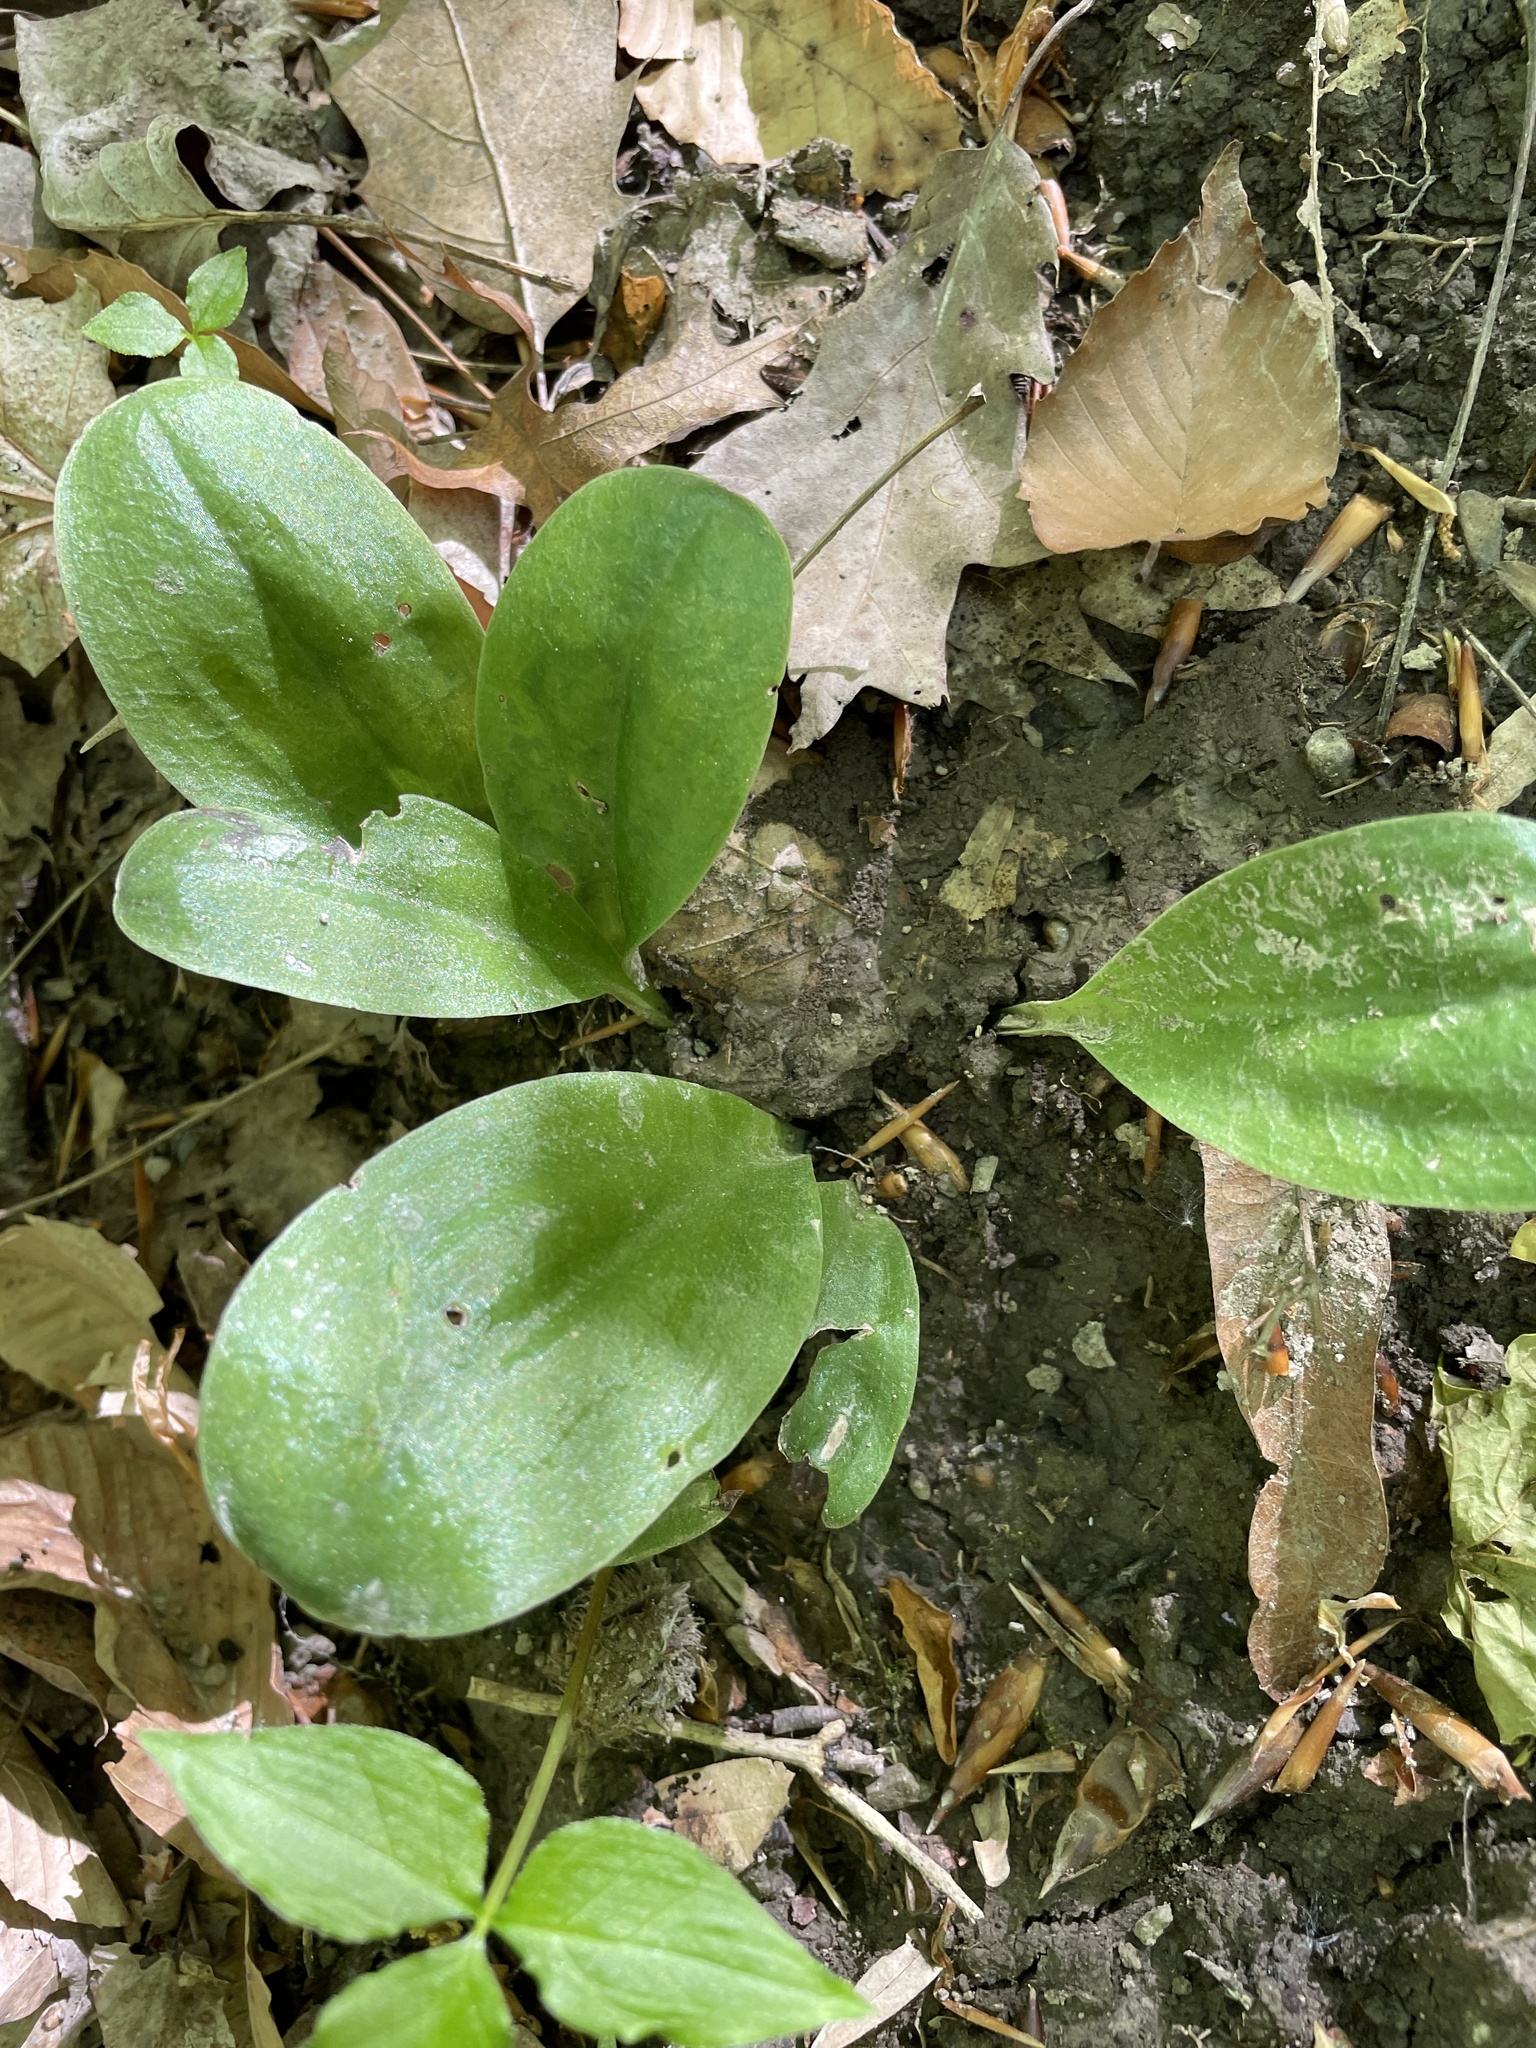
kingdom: Plantae
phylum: Tracheophyta
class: Liliopsida
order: Asparagales
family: Orchidaceae
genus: Galearis
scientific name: Galearis spectabilis
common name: Purple-hooded orchis
